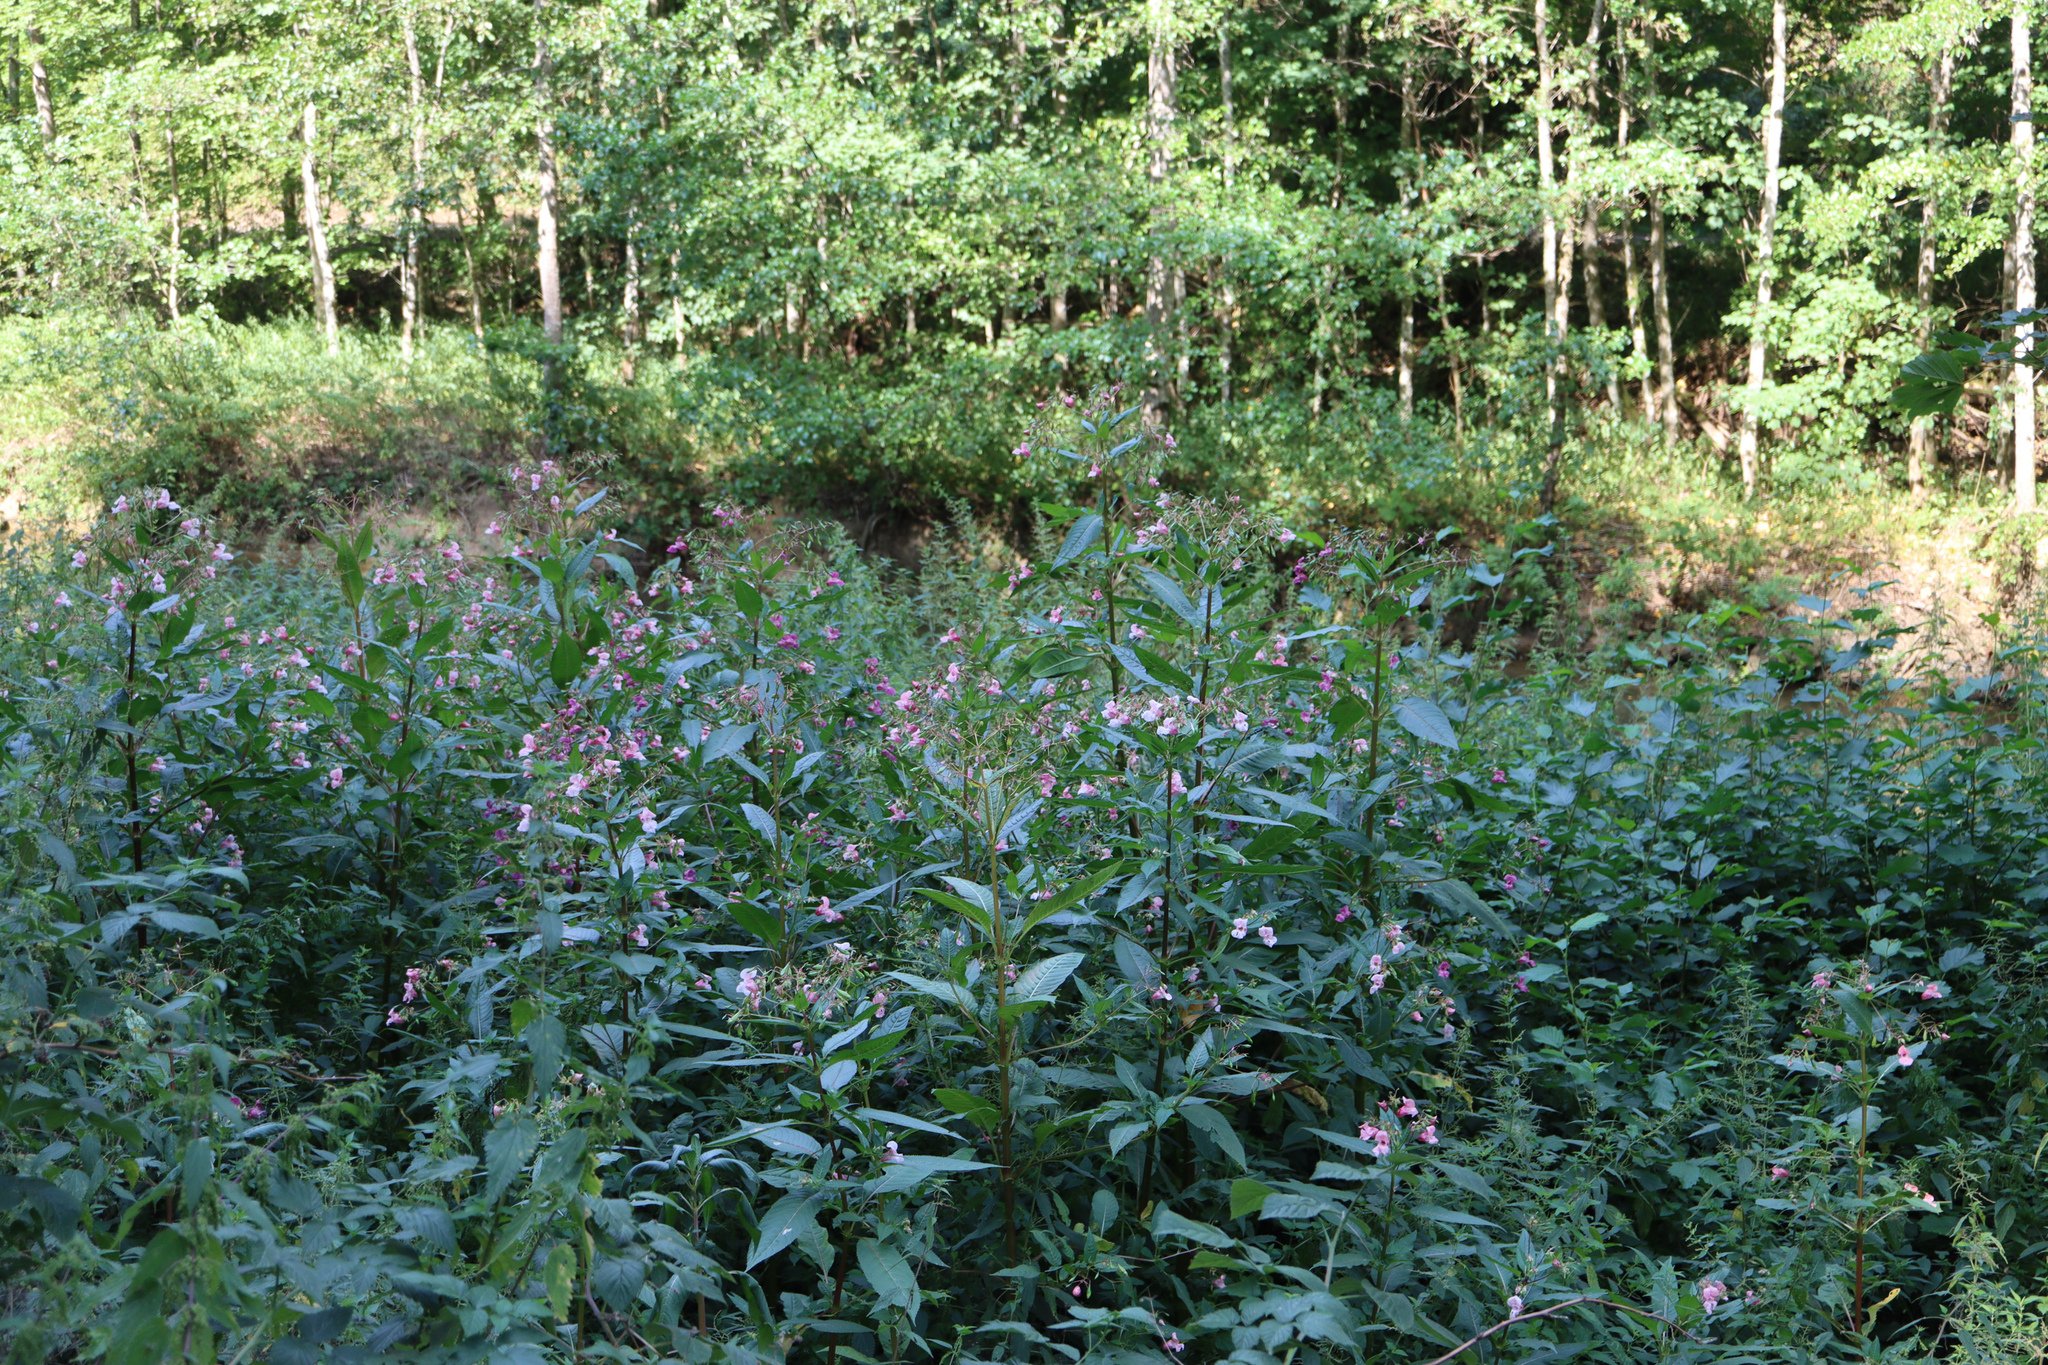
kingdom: Plantae
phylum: Tracheophyta
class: Magnoliopsida
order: Ericales
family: Balsaminaceae
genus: Impatiens
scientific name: Impatiens glandulifera
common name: Himalayan balsam
